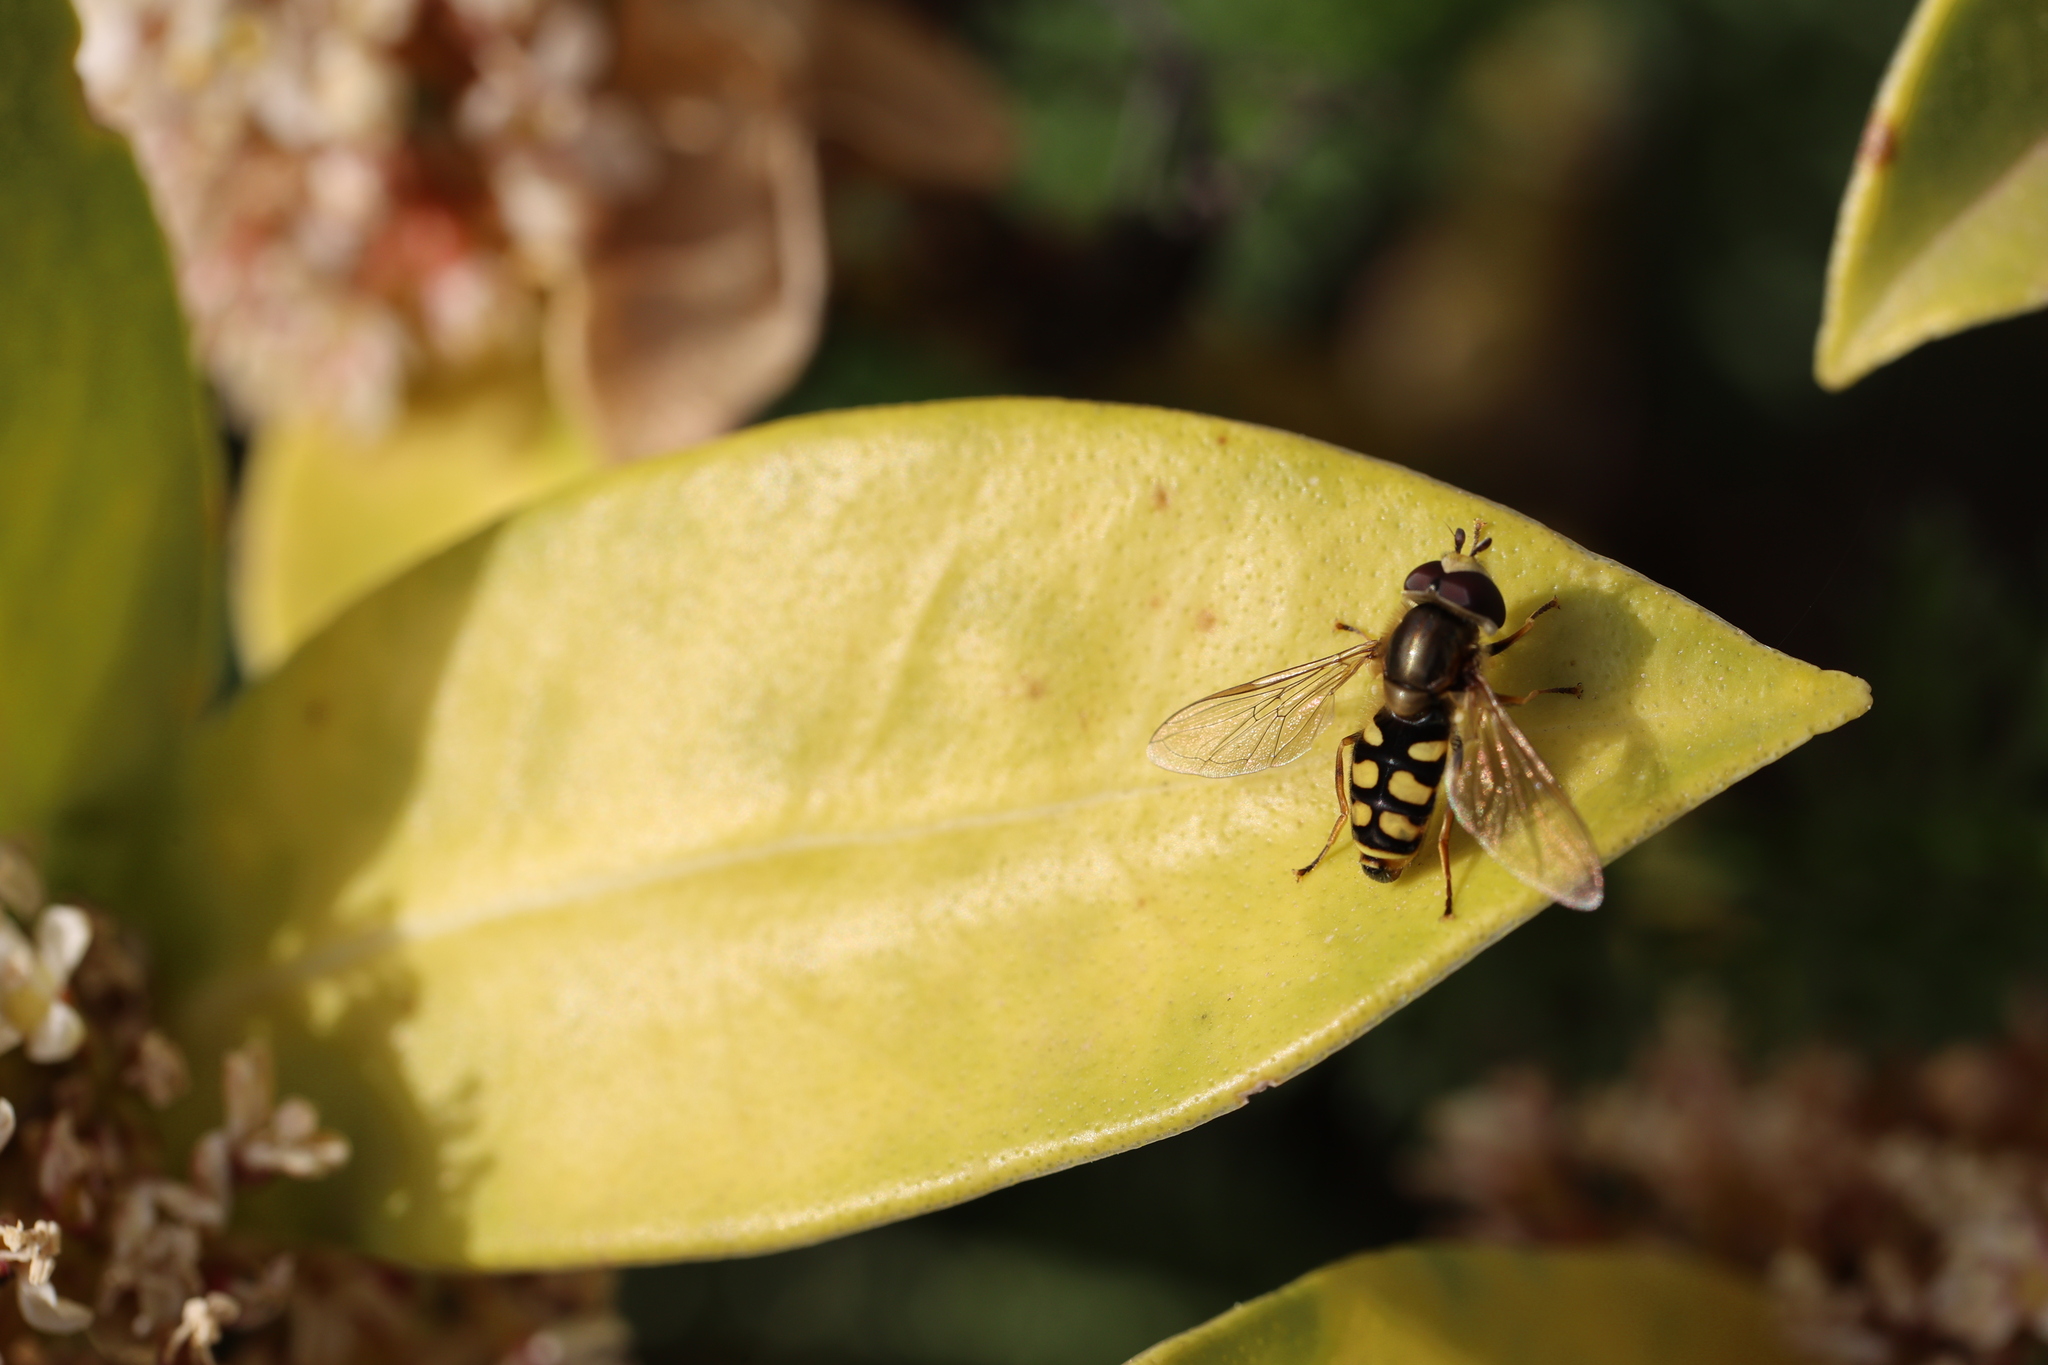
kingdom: Animalia
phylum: Arthropoda
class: Insecta
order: Diptera
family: Syrphidae
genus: Eupeodes
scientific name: Eupeodes corollae
